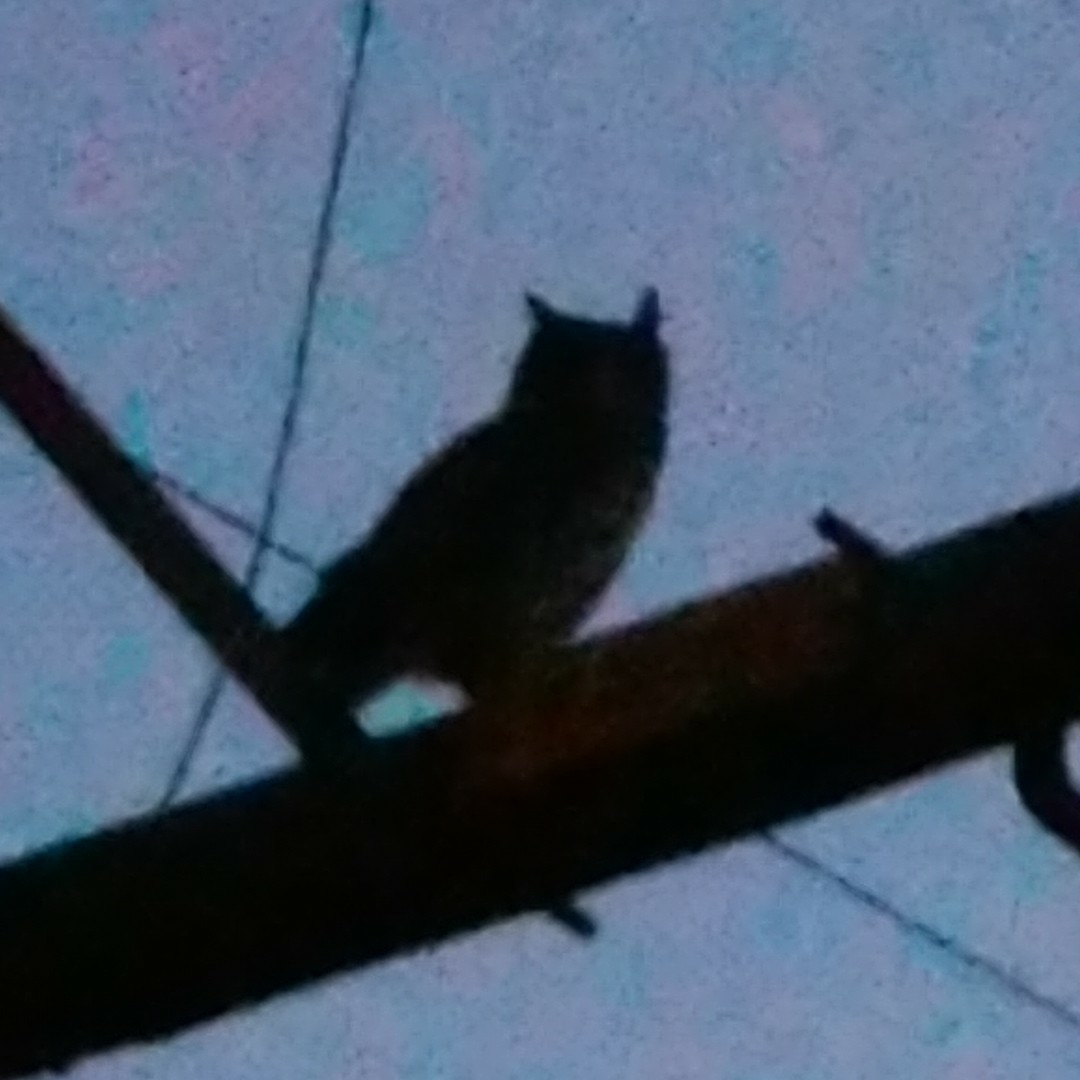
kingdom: Animalia
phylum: Chordata
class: Aves
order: Strigiformes
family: Strigidae
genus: Bubo
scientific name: Bubo africanus
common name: Spotted eagle-owl
